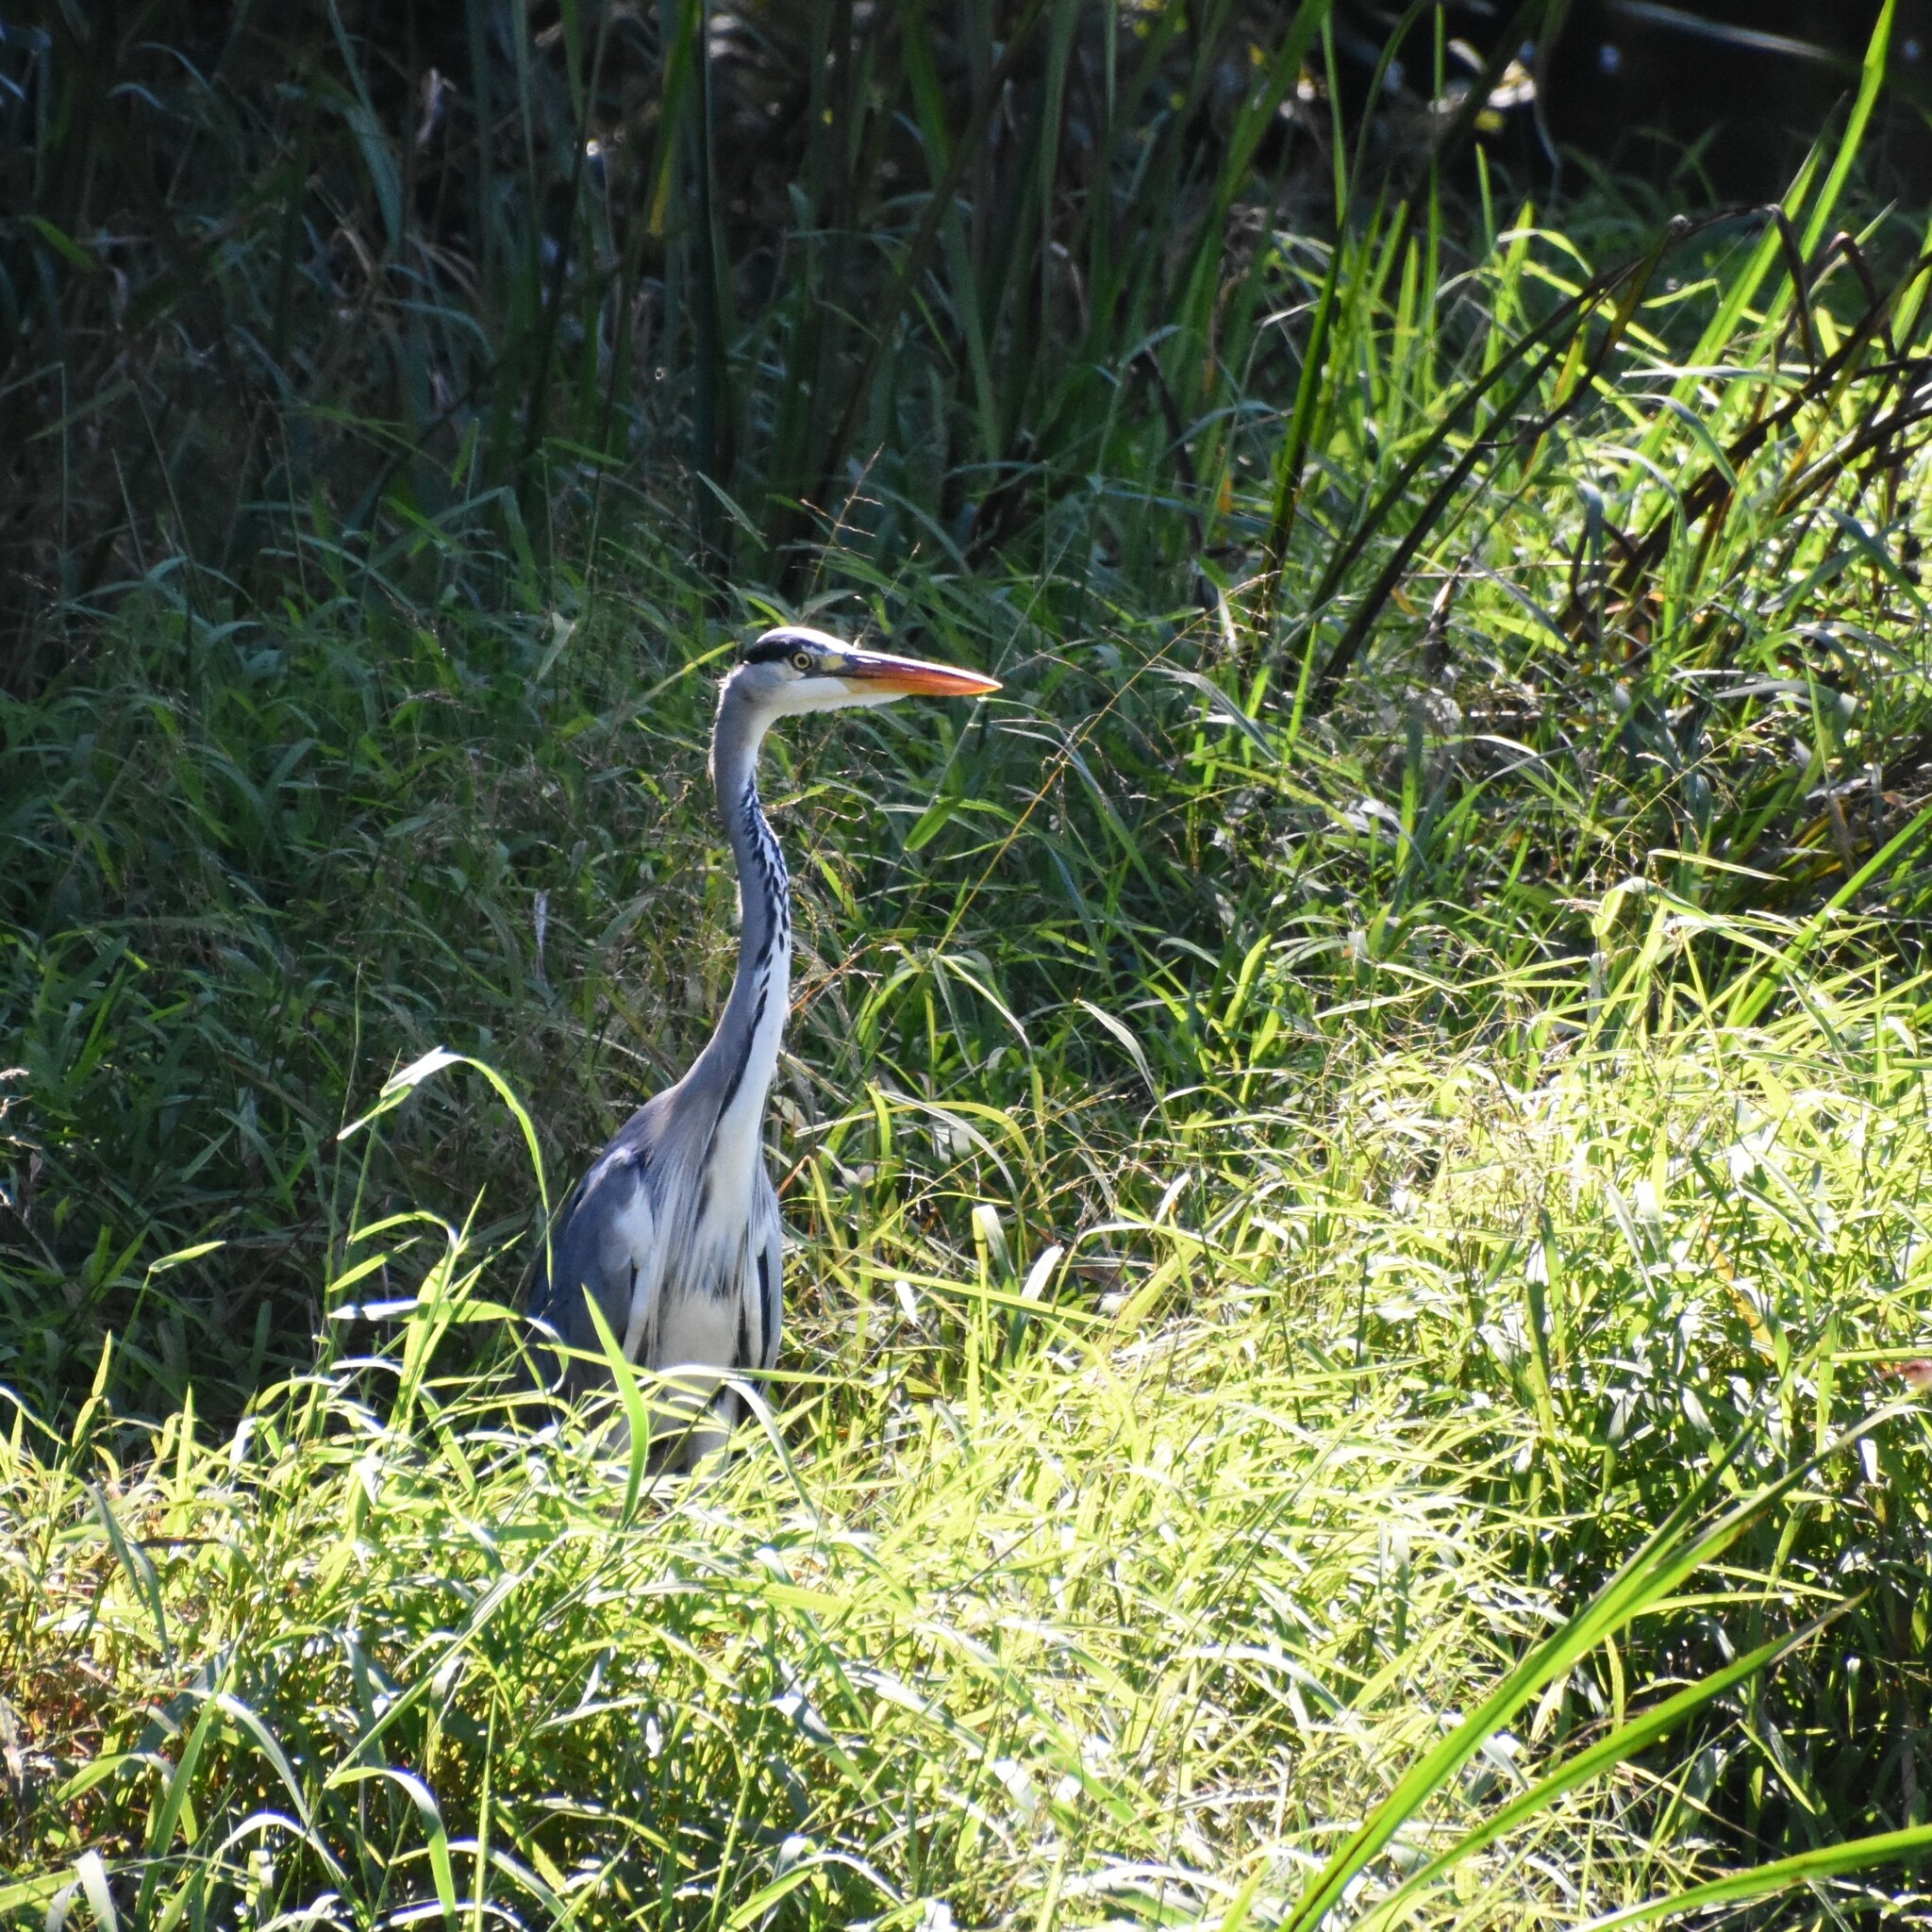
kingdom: Animalia
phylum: Chordata
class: Aves
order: Pelecaniformes
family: Ardeidae
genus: Ardea
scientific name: Ardea cinerea
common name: Grey heron
